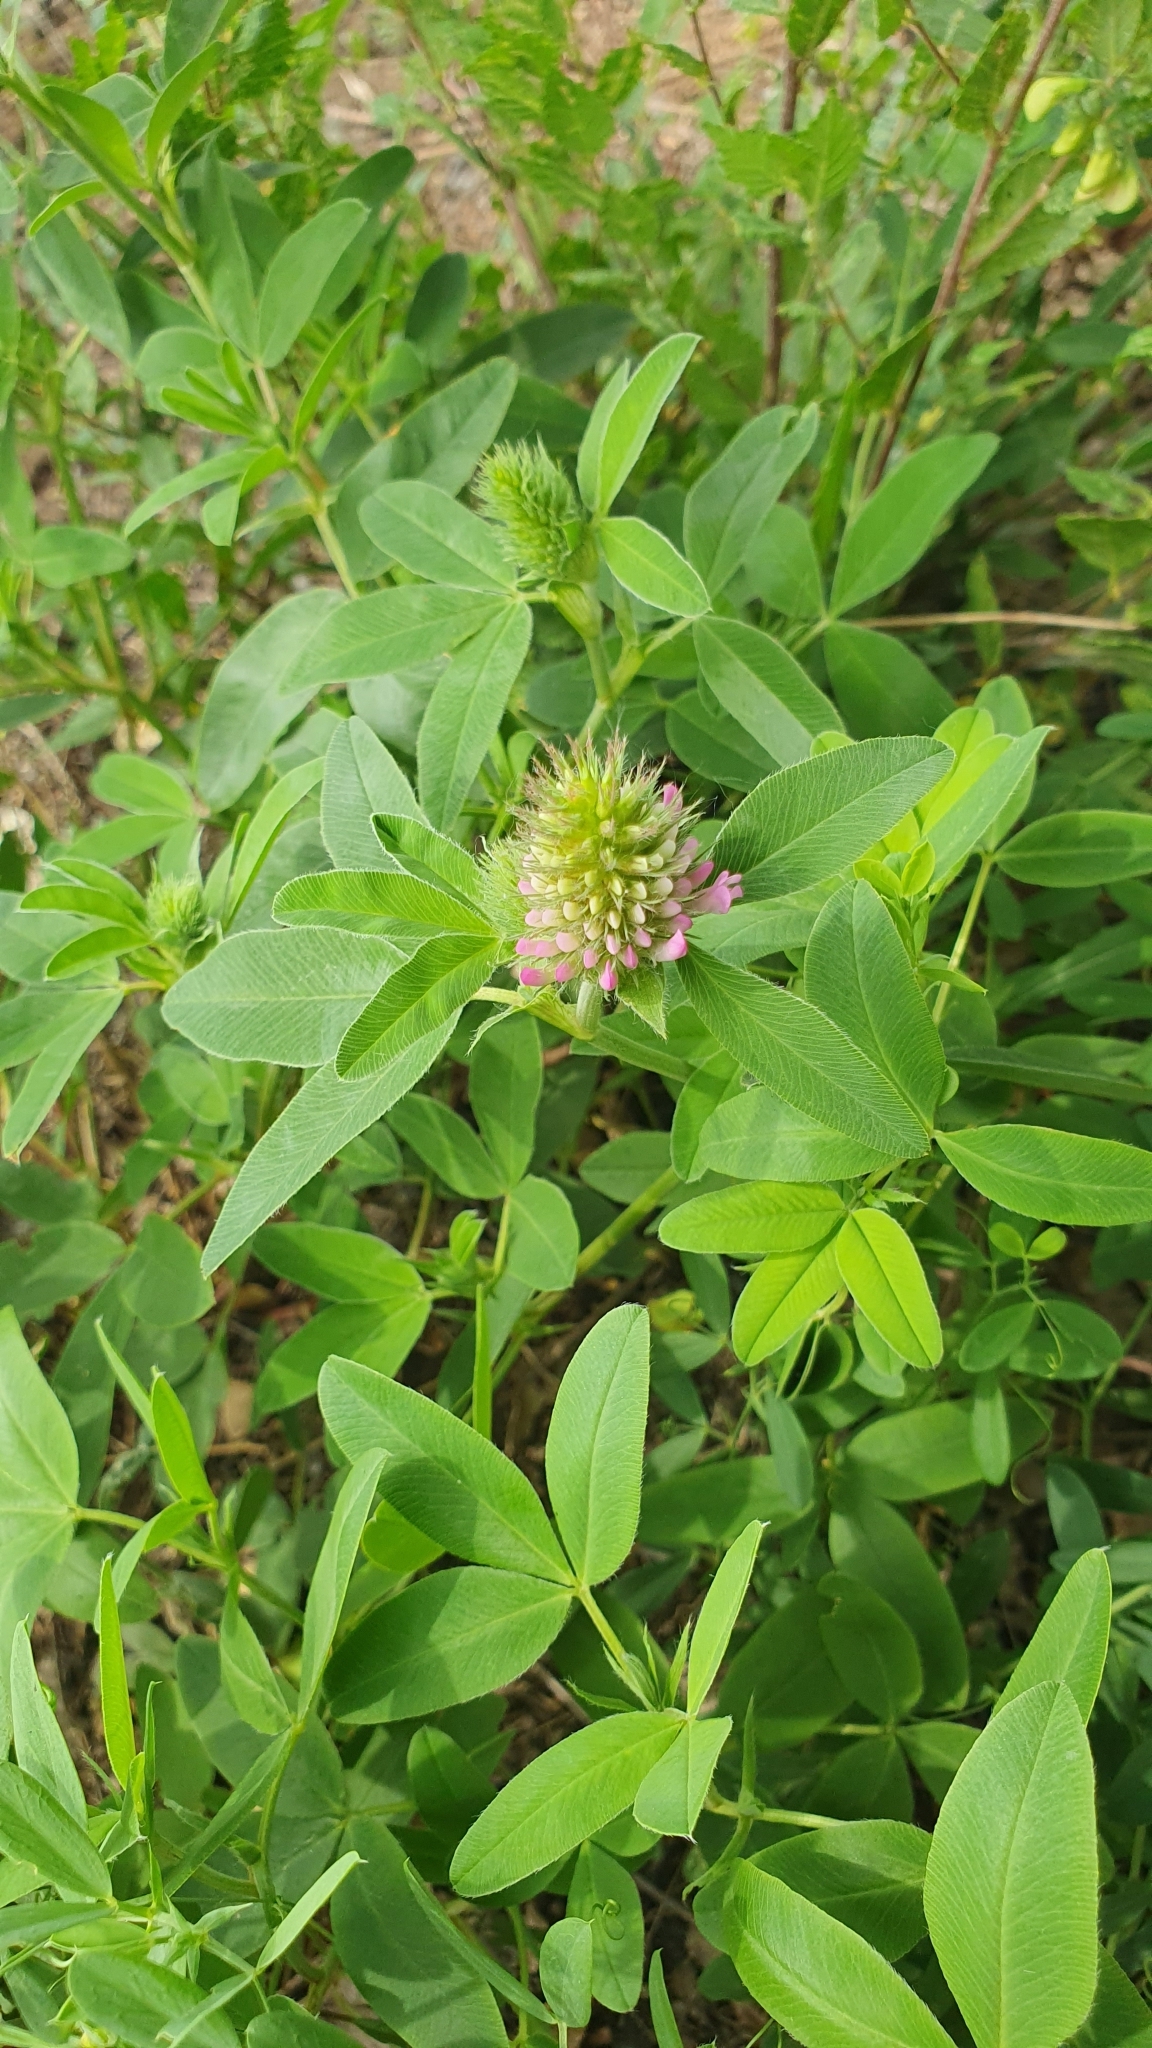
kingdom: Plantae
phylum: Tracheophyta
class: Magnoliopsida
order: Fabales
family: Fabaceae
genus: Trifolium
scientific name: Trifolium medium
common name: Zigzag clover
